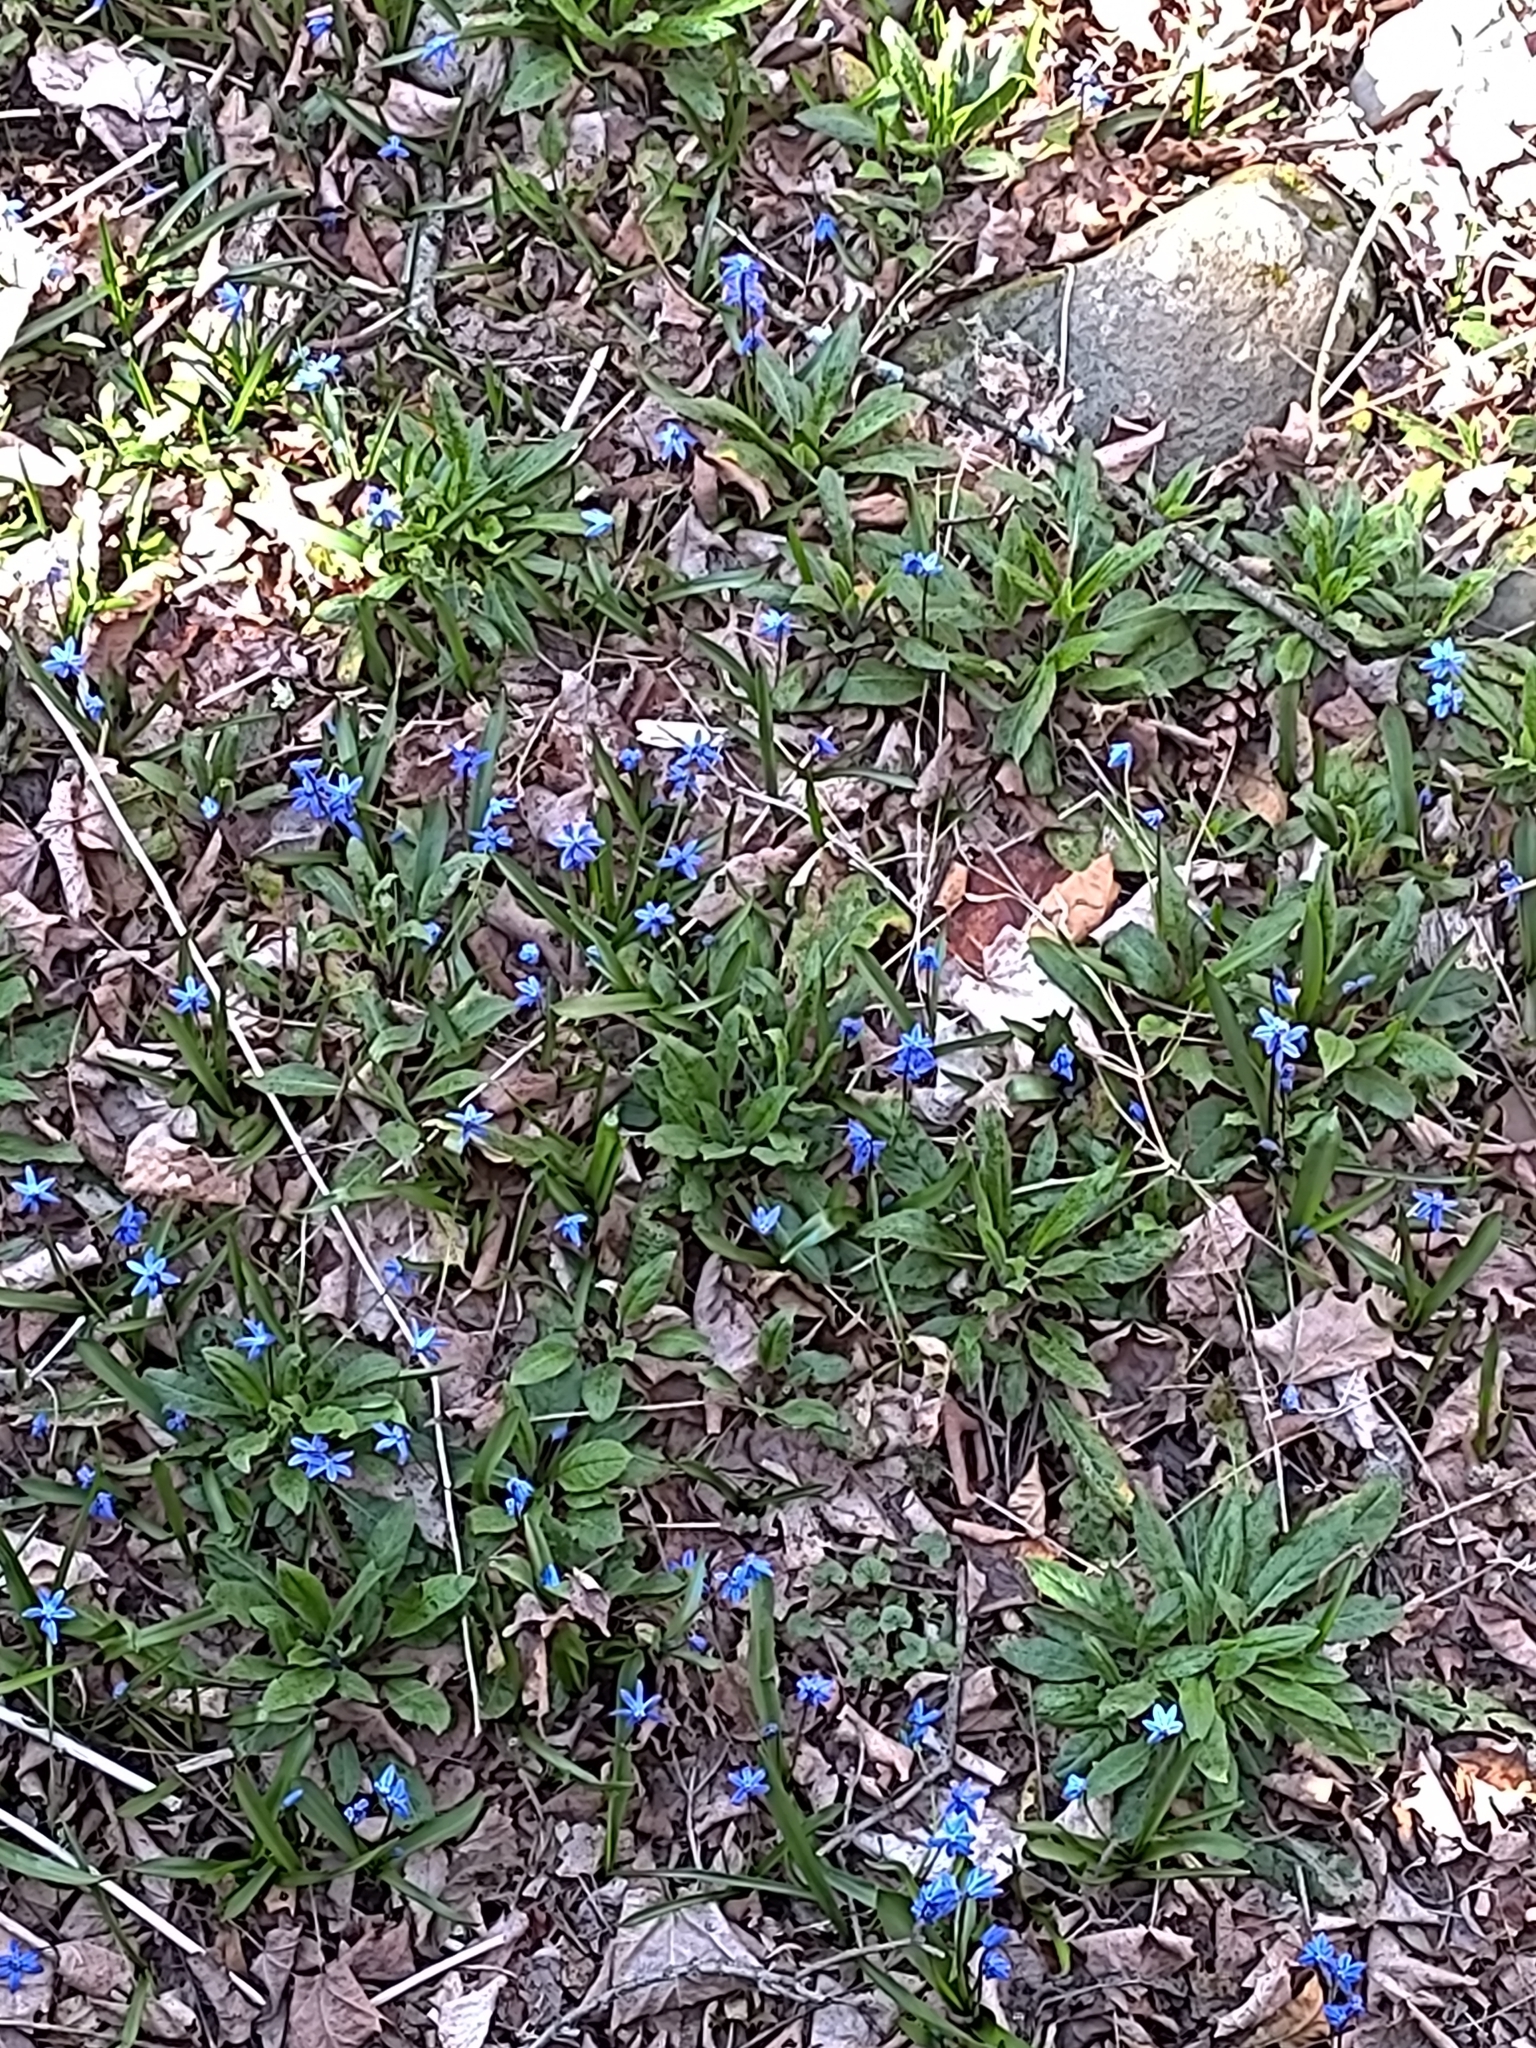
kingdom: Plantae
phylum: Tracheophyta
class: Liliopsida
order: Asparagales
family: Asparagaceae
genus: Scilla
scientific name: Scilla siberica
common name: Siberian squill
